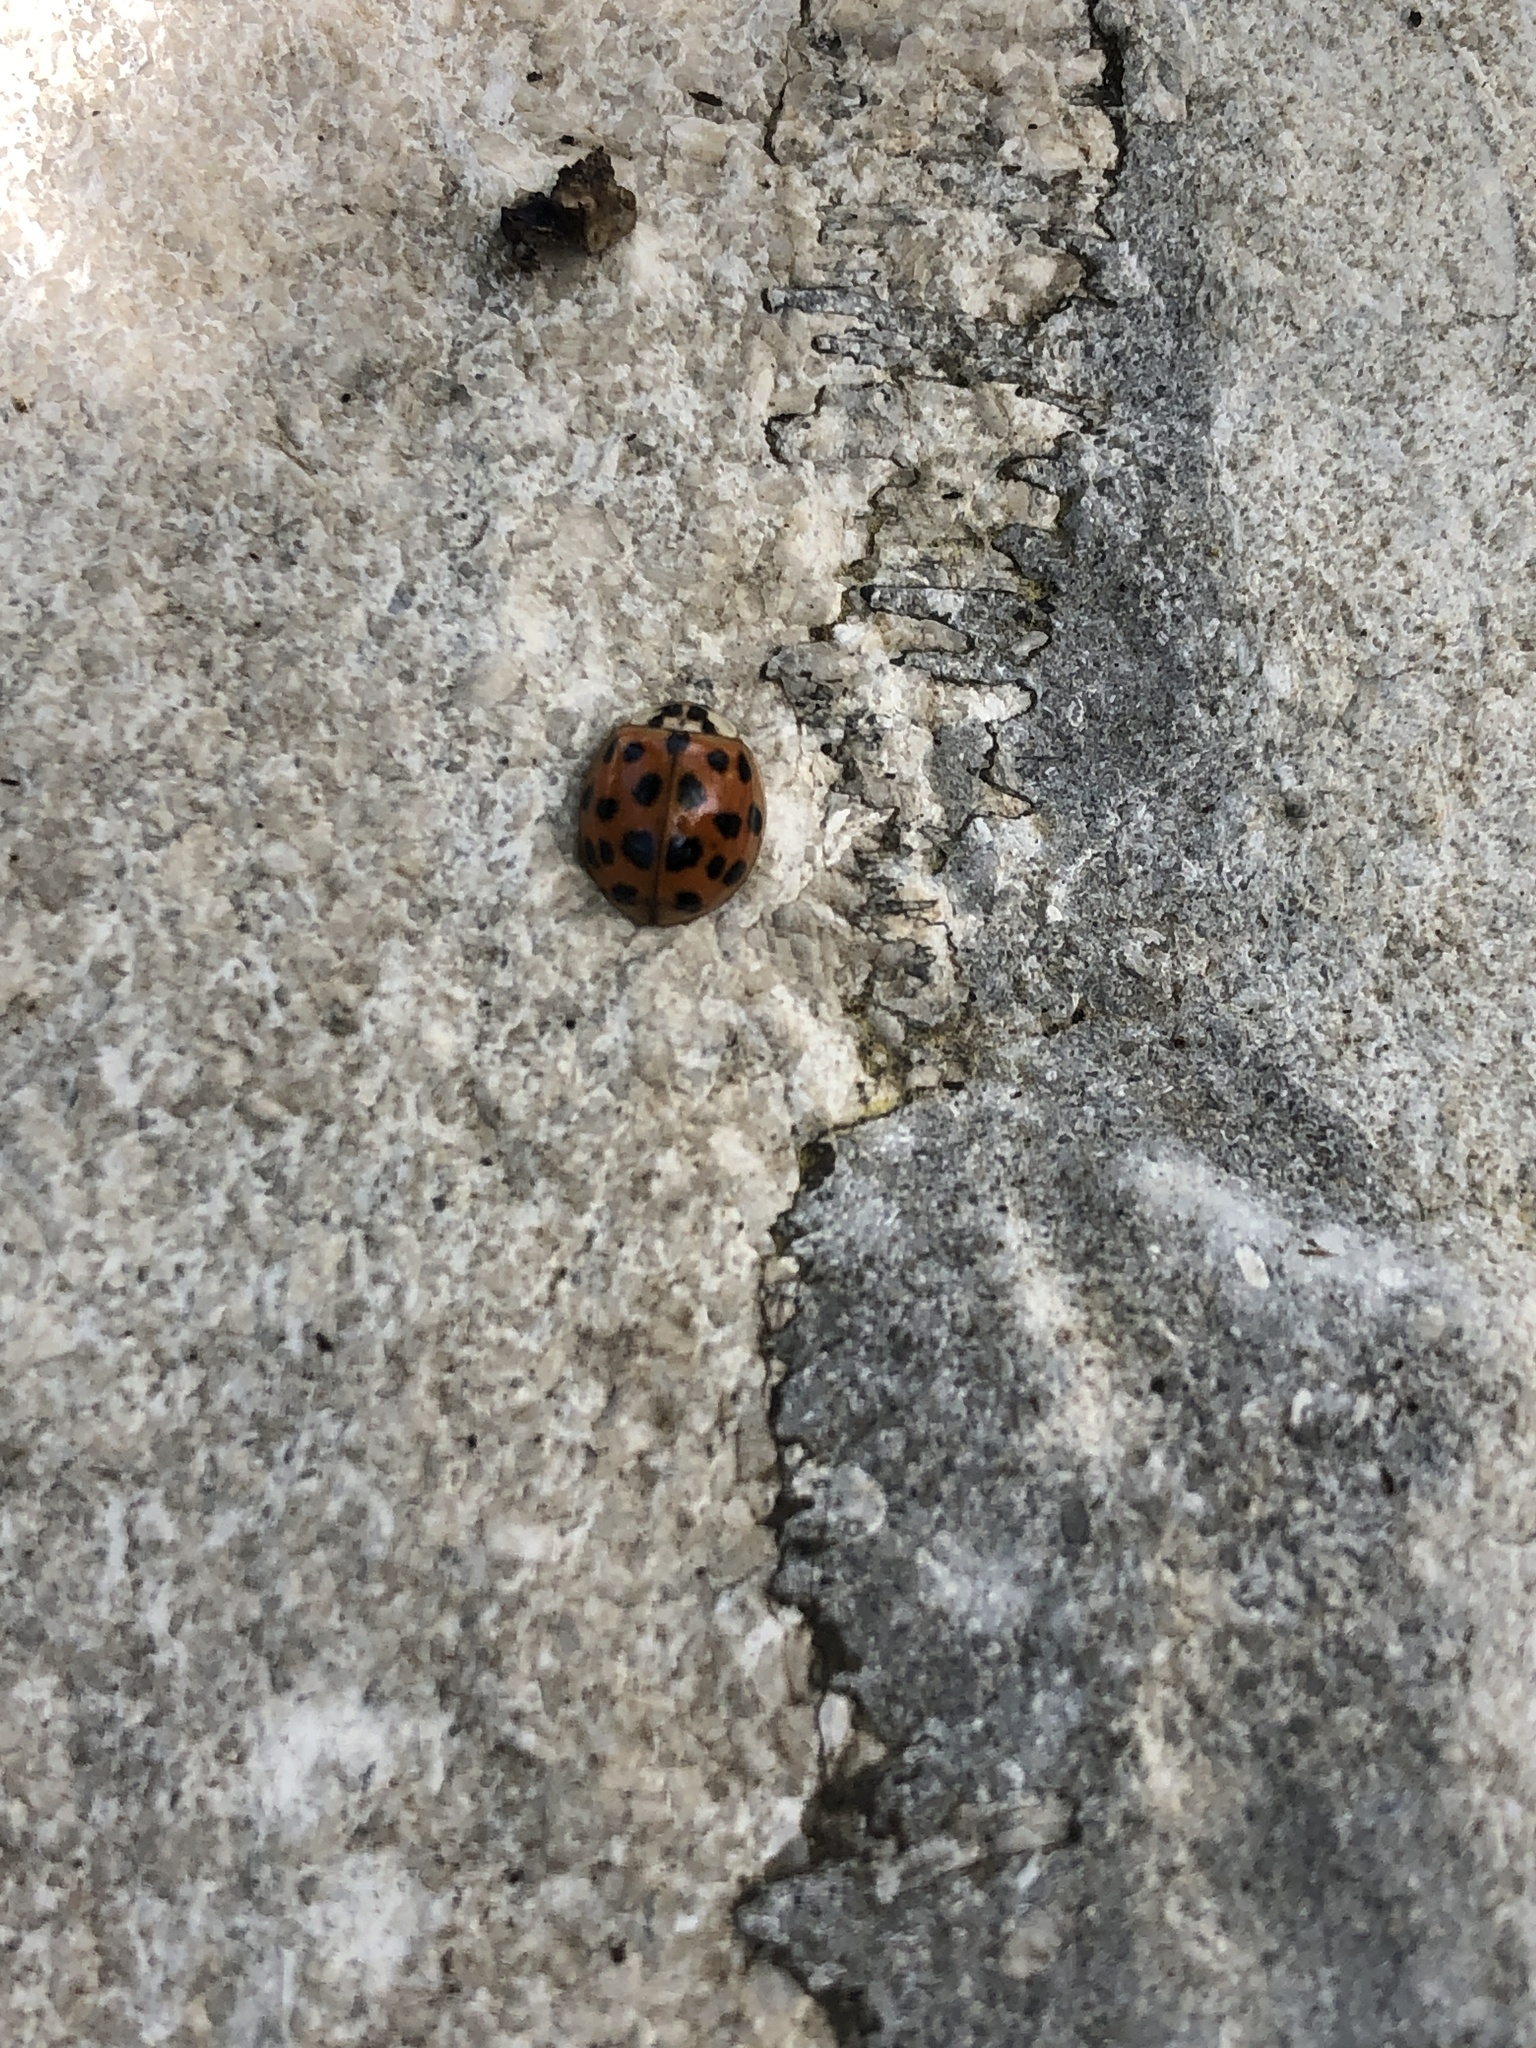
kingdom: Animalia
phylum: Arthropoda
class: Insecta
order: Coleoptera
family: Coccinellidae
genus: Harmonia
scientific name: Harmonia axyridis
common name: Harlequin ladybird
